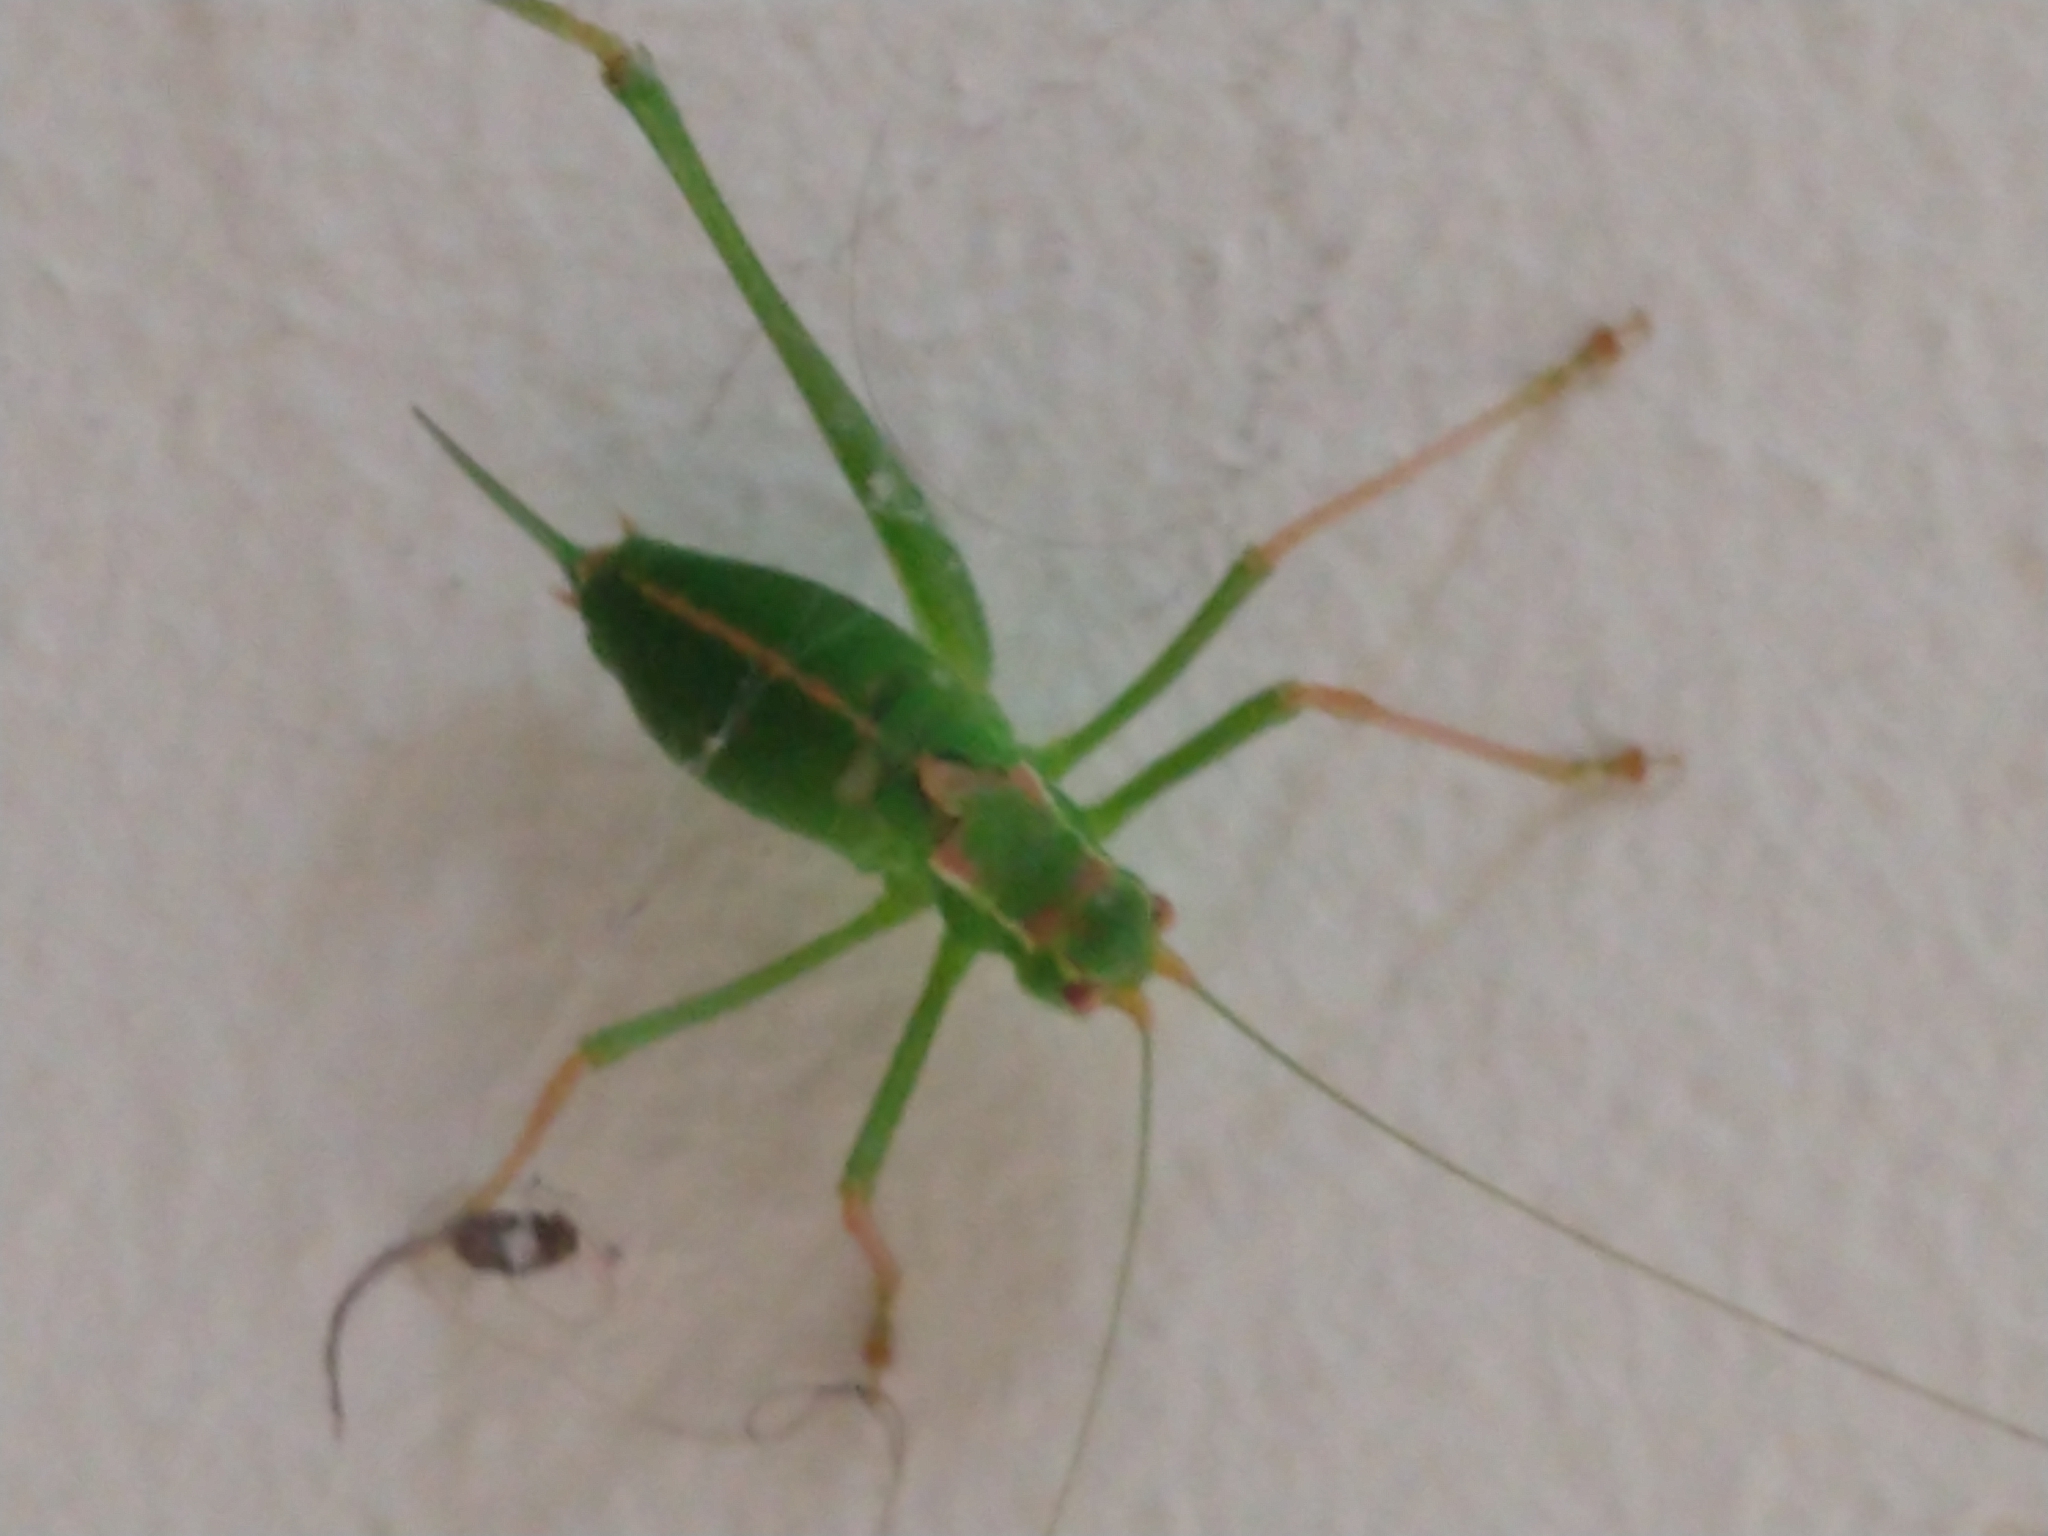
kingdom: Animalia
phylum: Arthropoda
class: Insecta
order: Orthoptera
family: Tettigoniidae
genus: Leptophyes
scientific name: Leptophyes punctatissima
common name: Speckled bush-cricket
